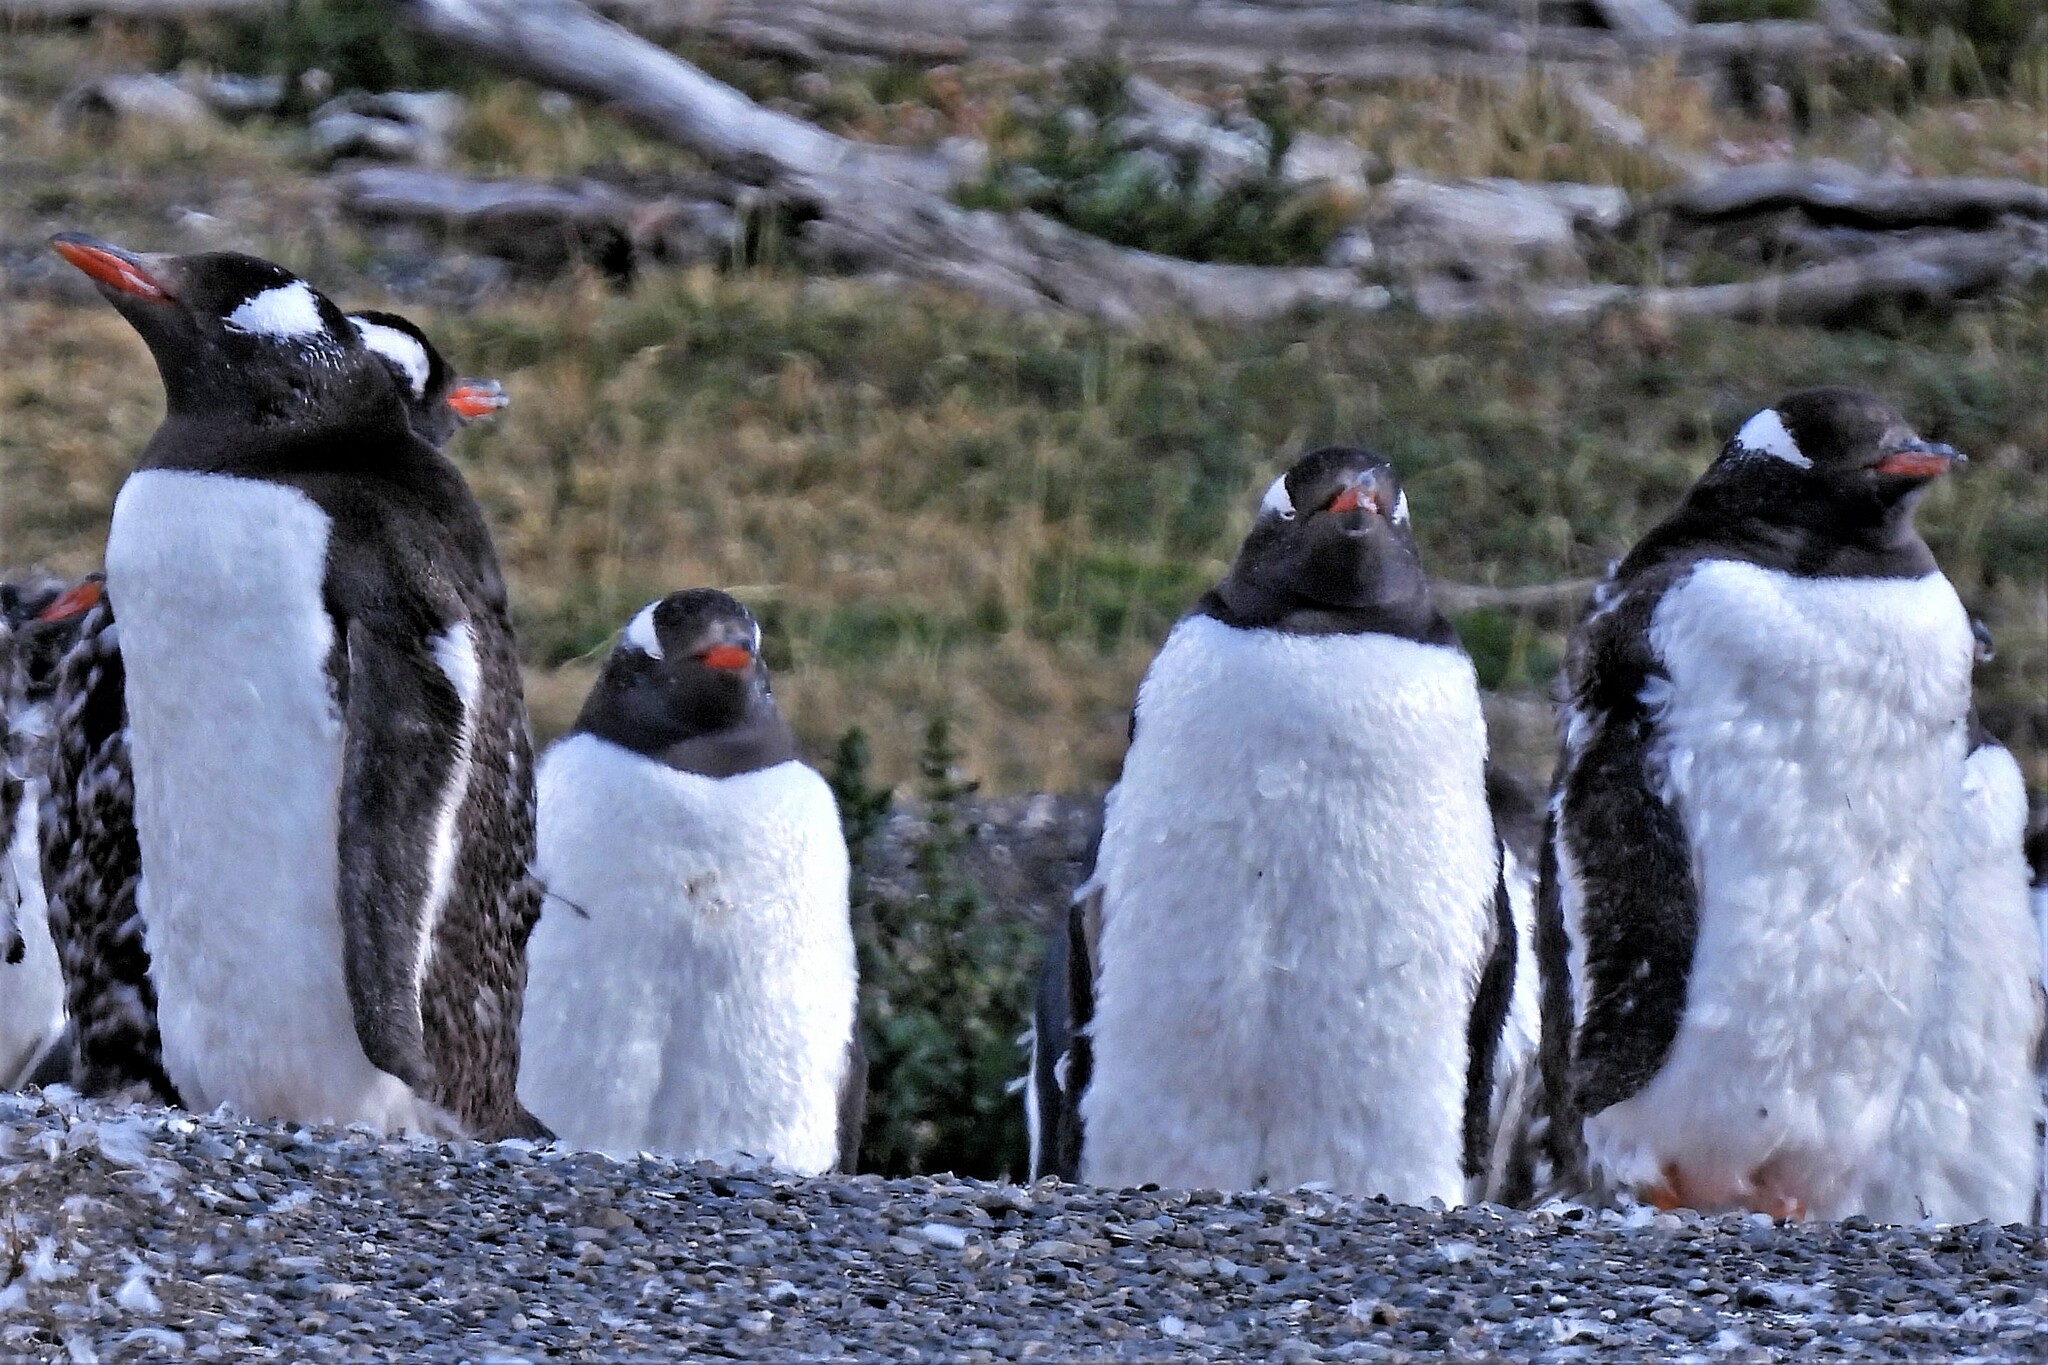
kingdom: Animalia
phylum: Chordata
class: Aves
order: Sphenisciformes
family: Spheniscidae
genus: Pygoscelis
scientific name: Pygoscelis papua
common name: Gentoo penguin
